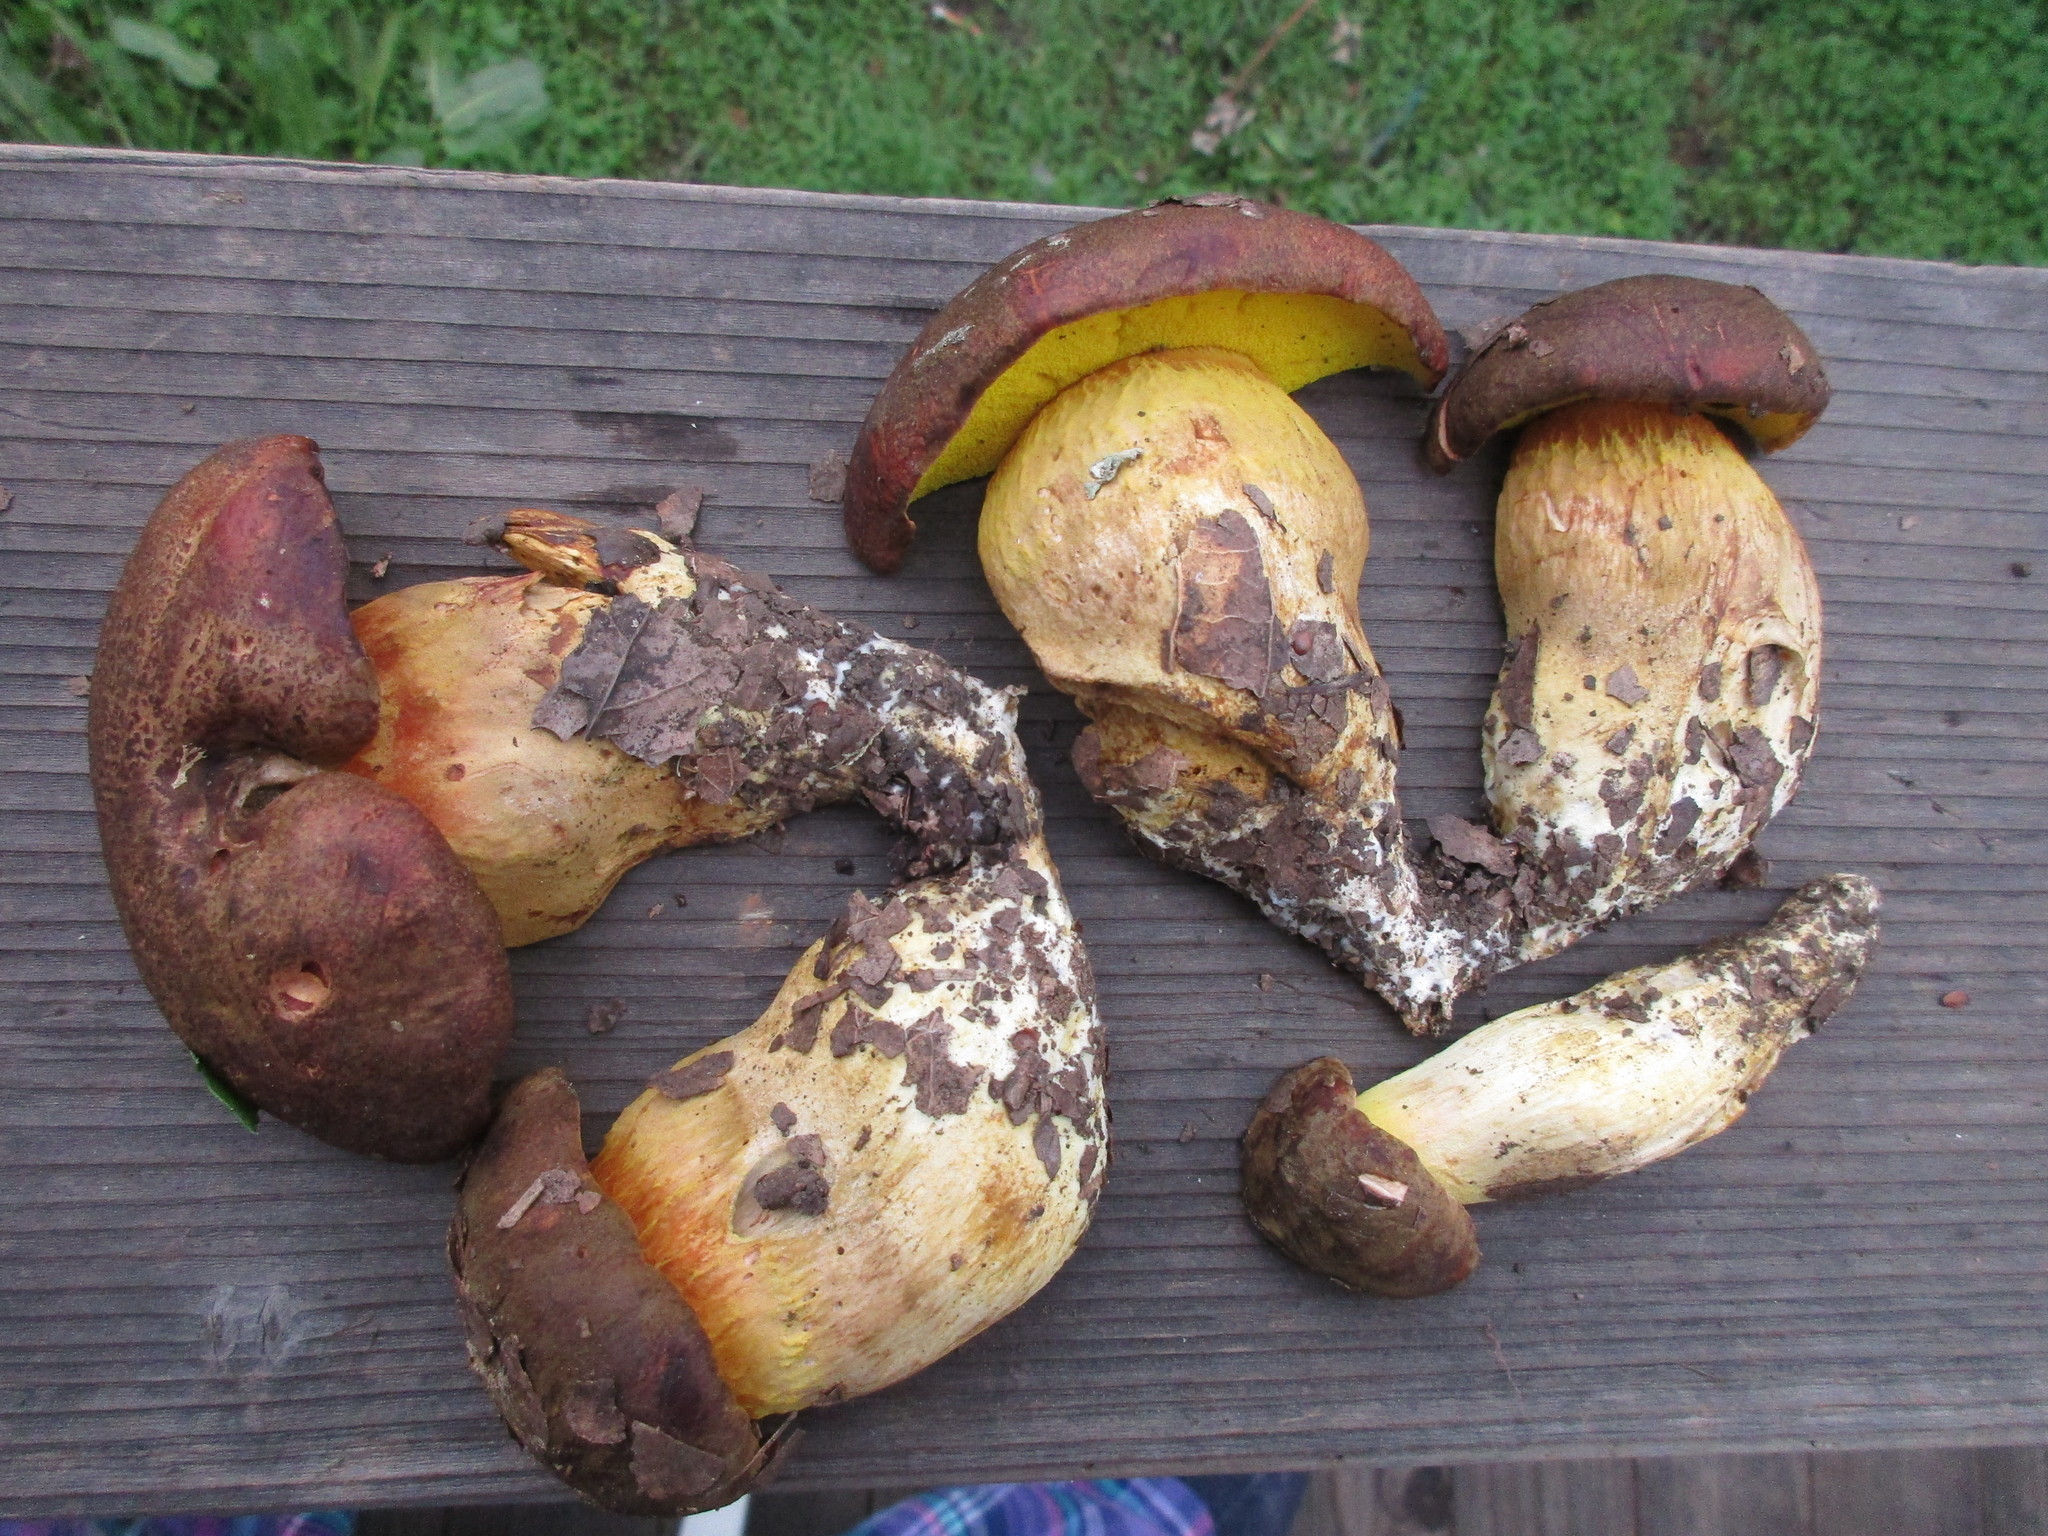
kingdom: Fungi
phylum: Basidiomycota
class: Agaricomycetes
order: Boletales
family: Boletaceae
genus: Aureoboletus
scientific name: Aureoboletus citriniporus
